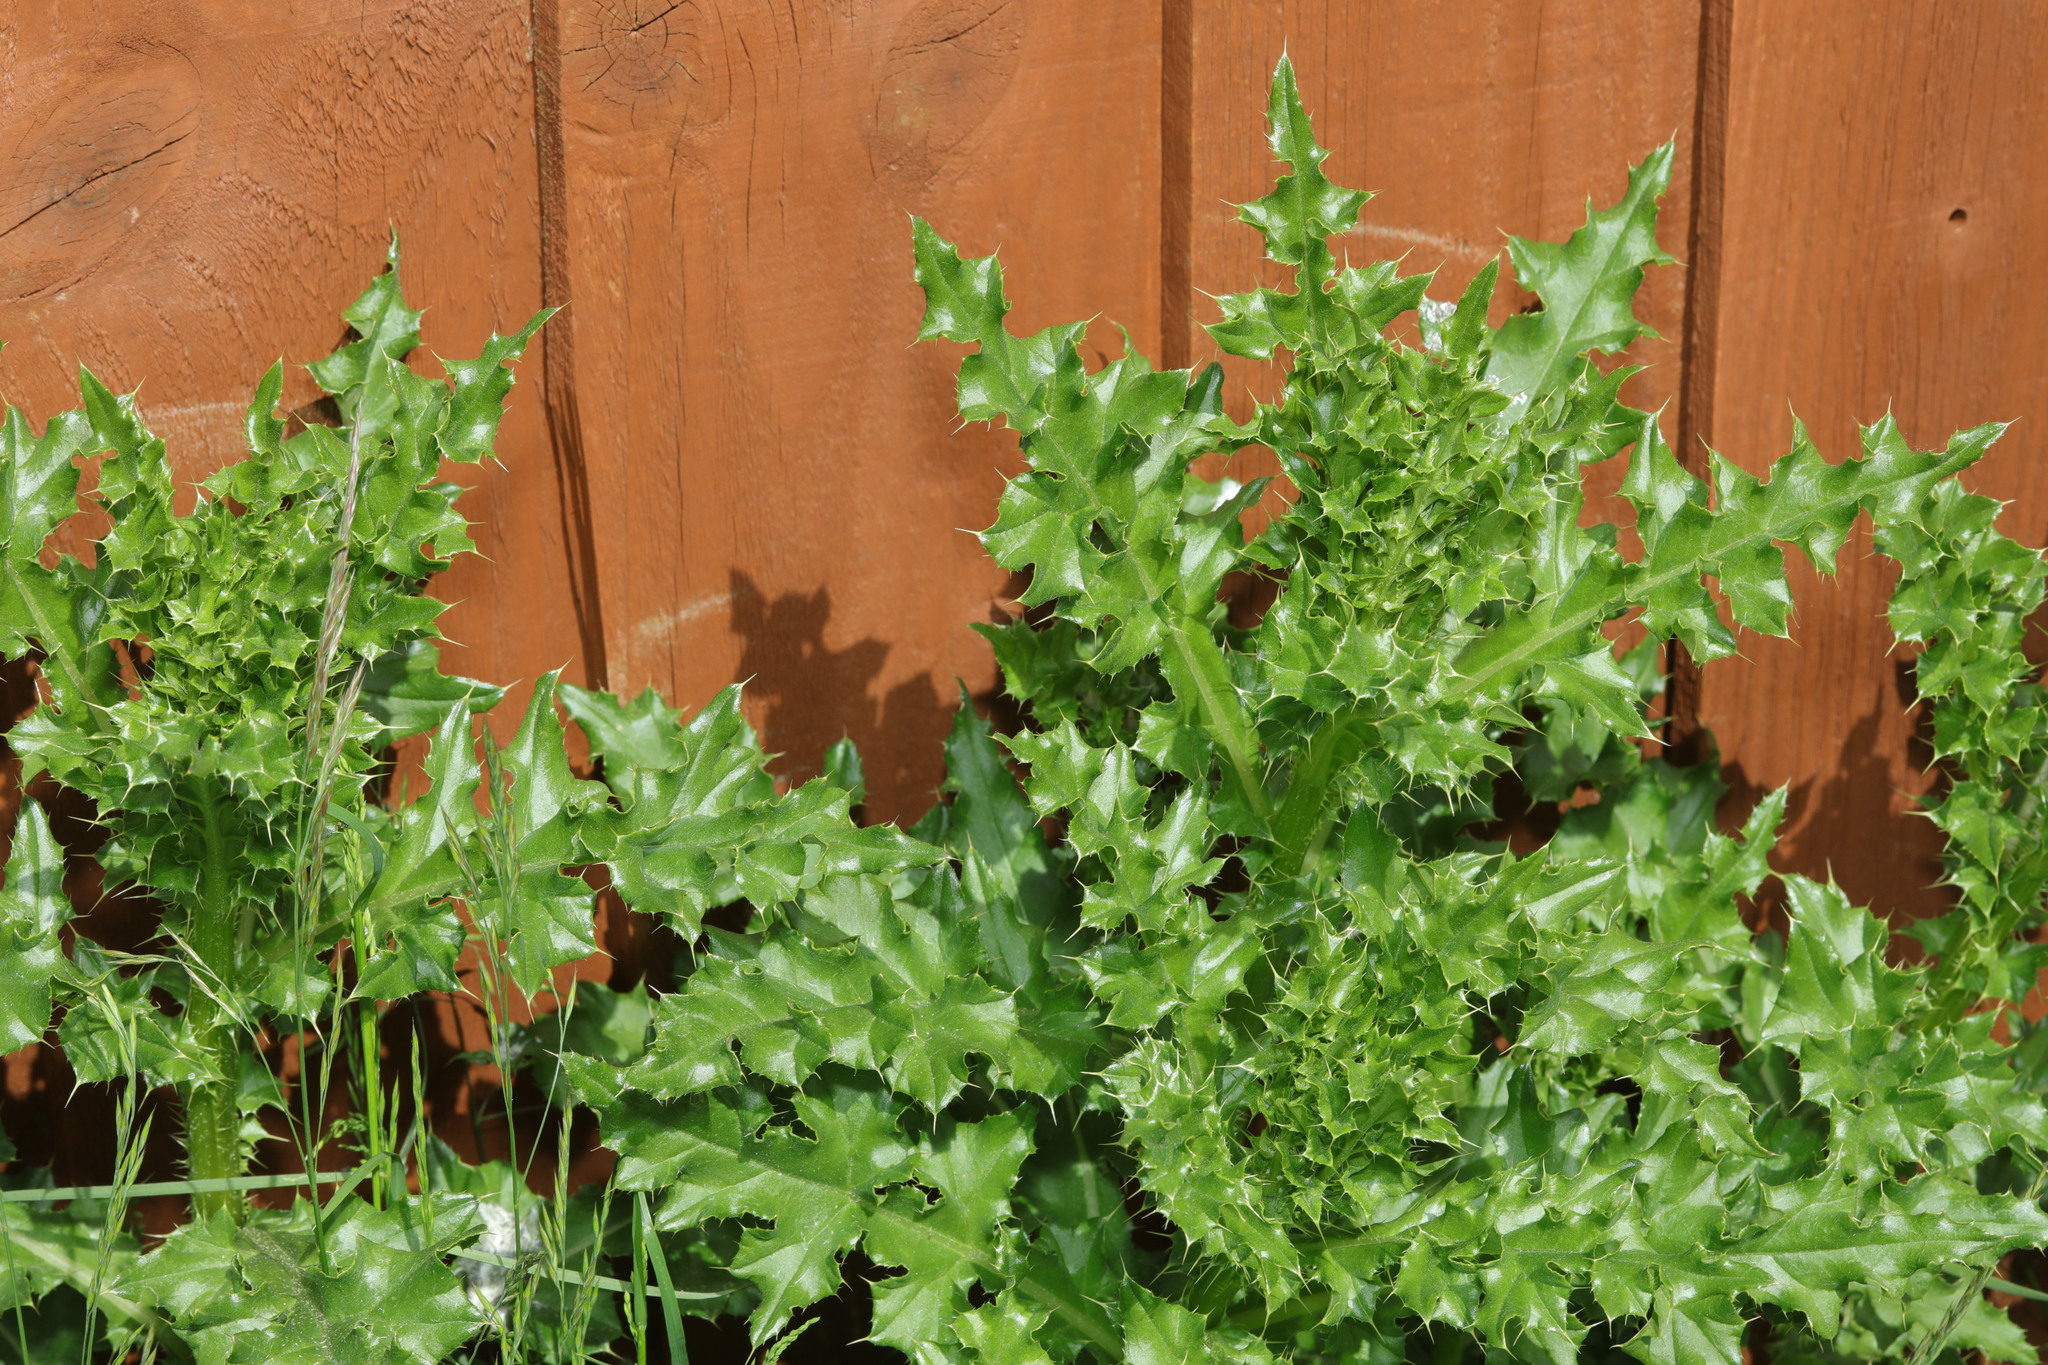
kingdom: Plantae
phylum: Tracheophyta
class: Magnoliopsida
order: Asterales
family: Asteraceae
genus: Cirsium
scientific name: Cirsium arvense
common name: Creeping thistle
